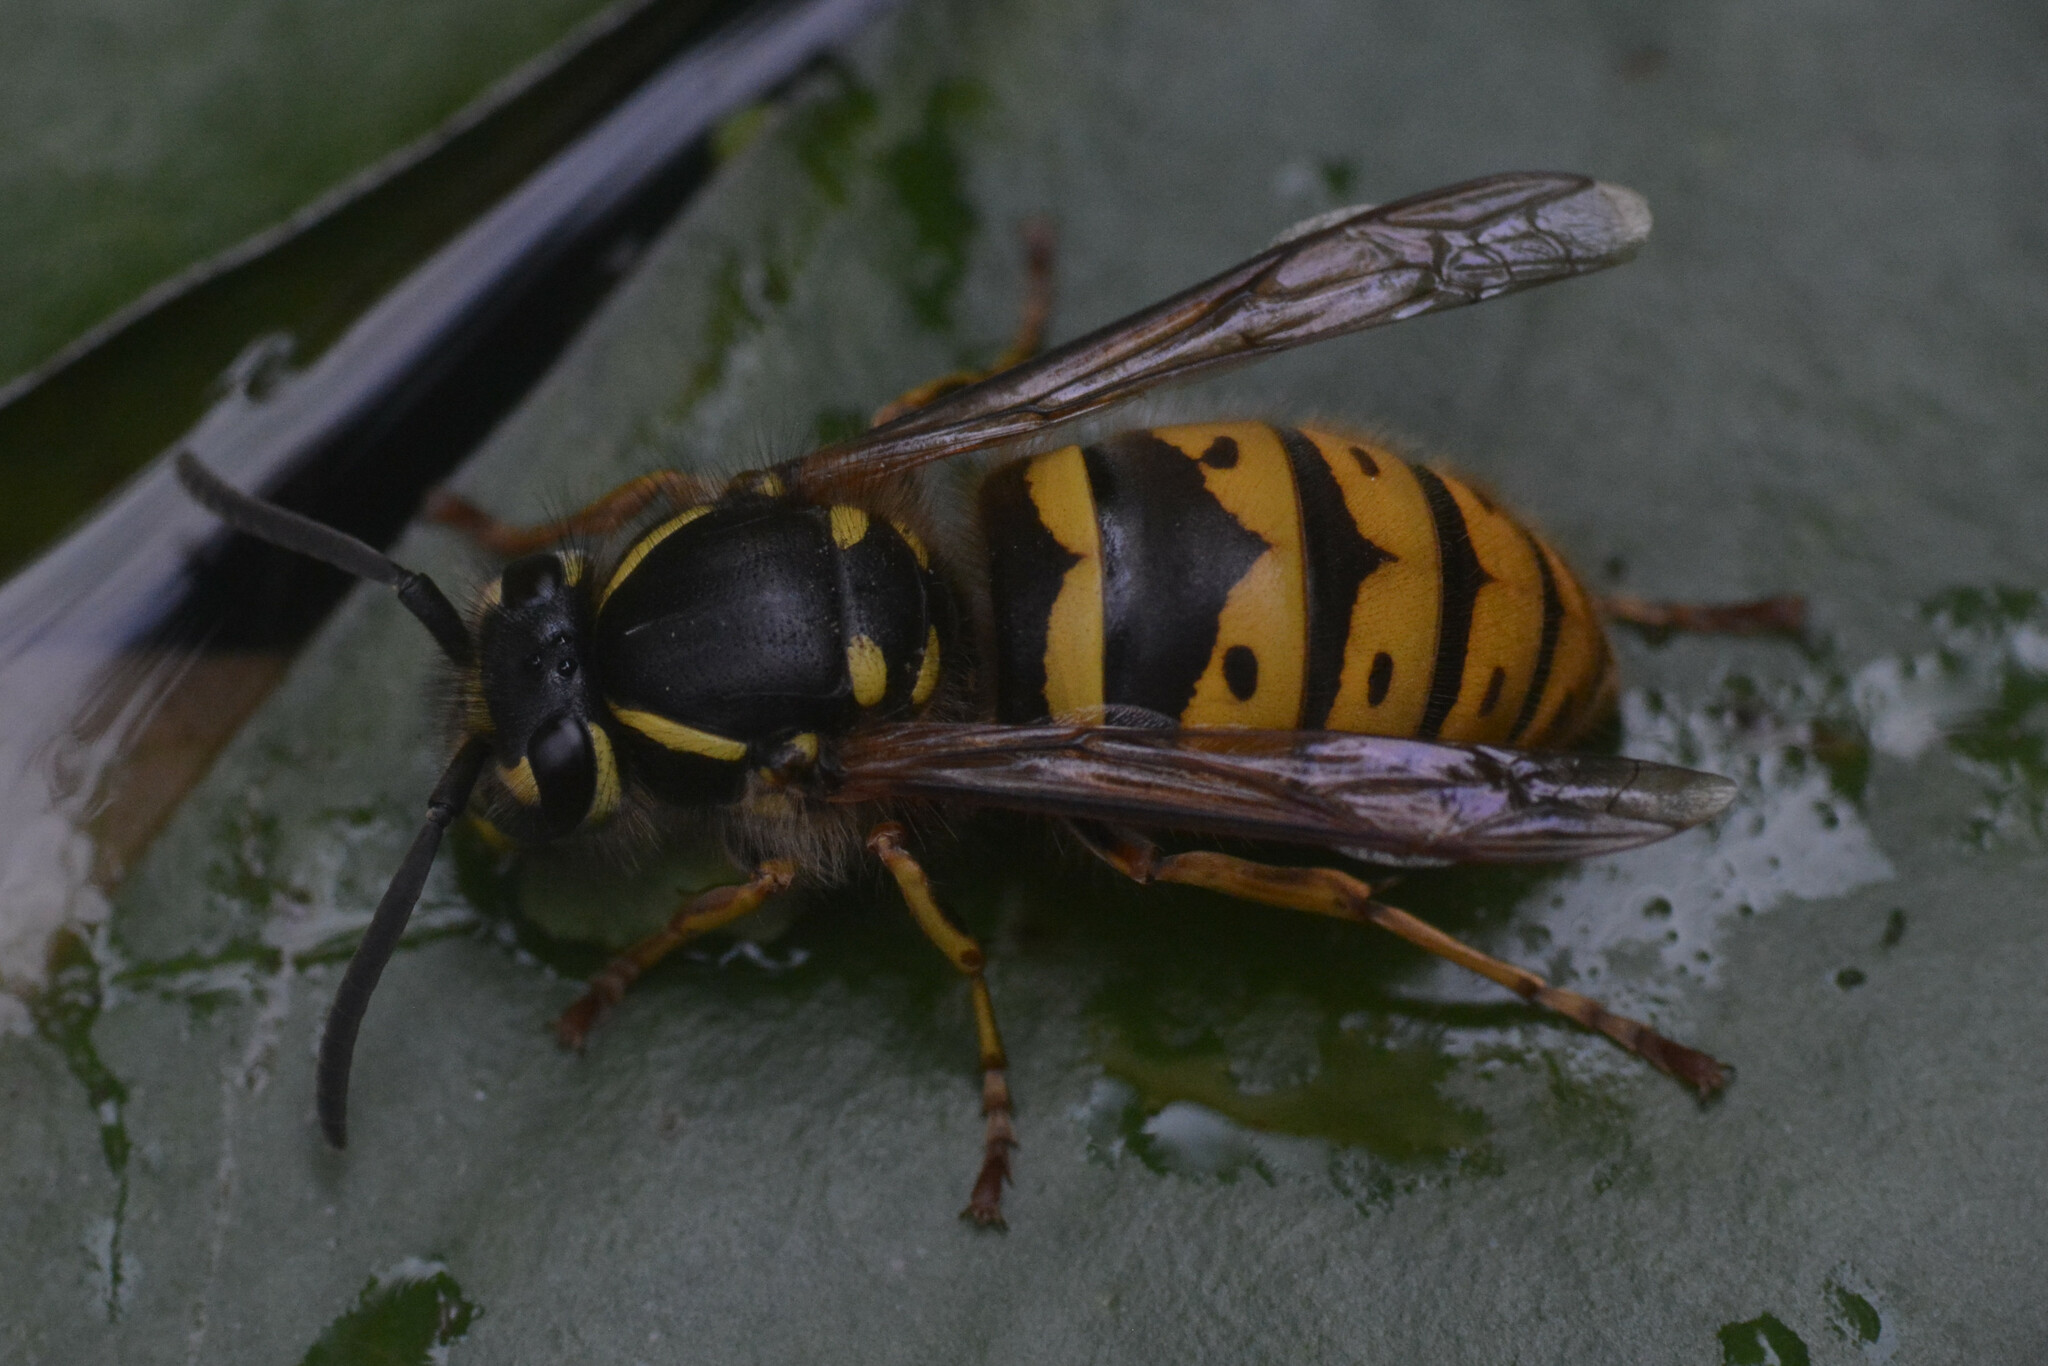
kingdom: Animalia
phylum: Arthropoda
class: Insecta
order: Hymenoptera
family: Vespidae
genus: Vespula
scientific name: Vespula vulgaris
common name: Common wasp
